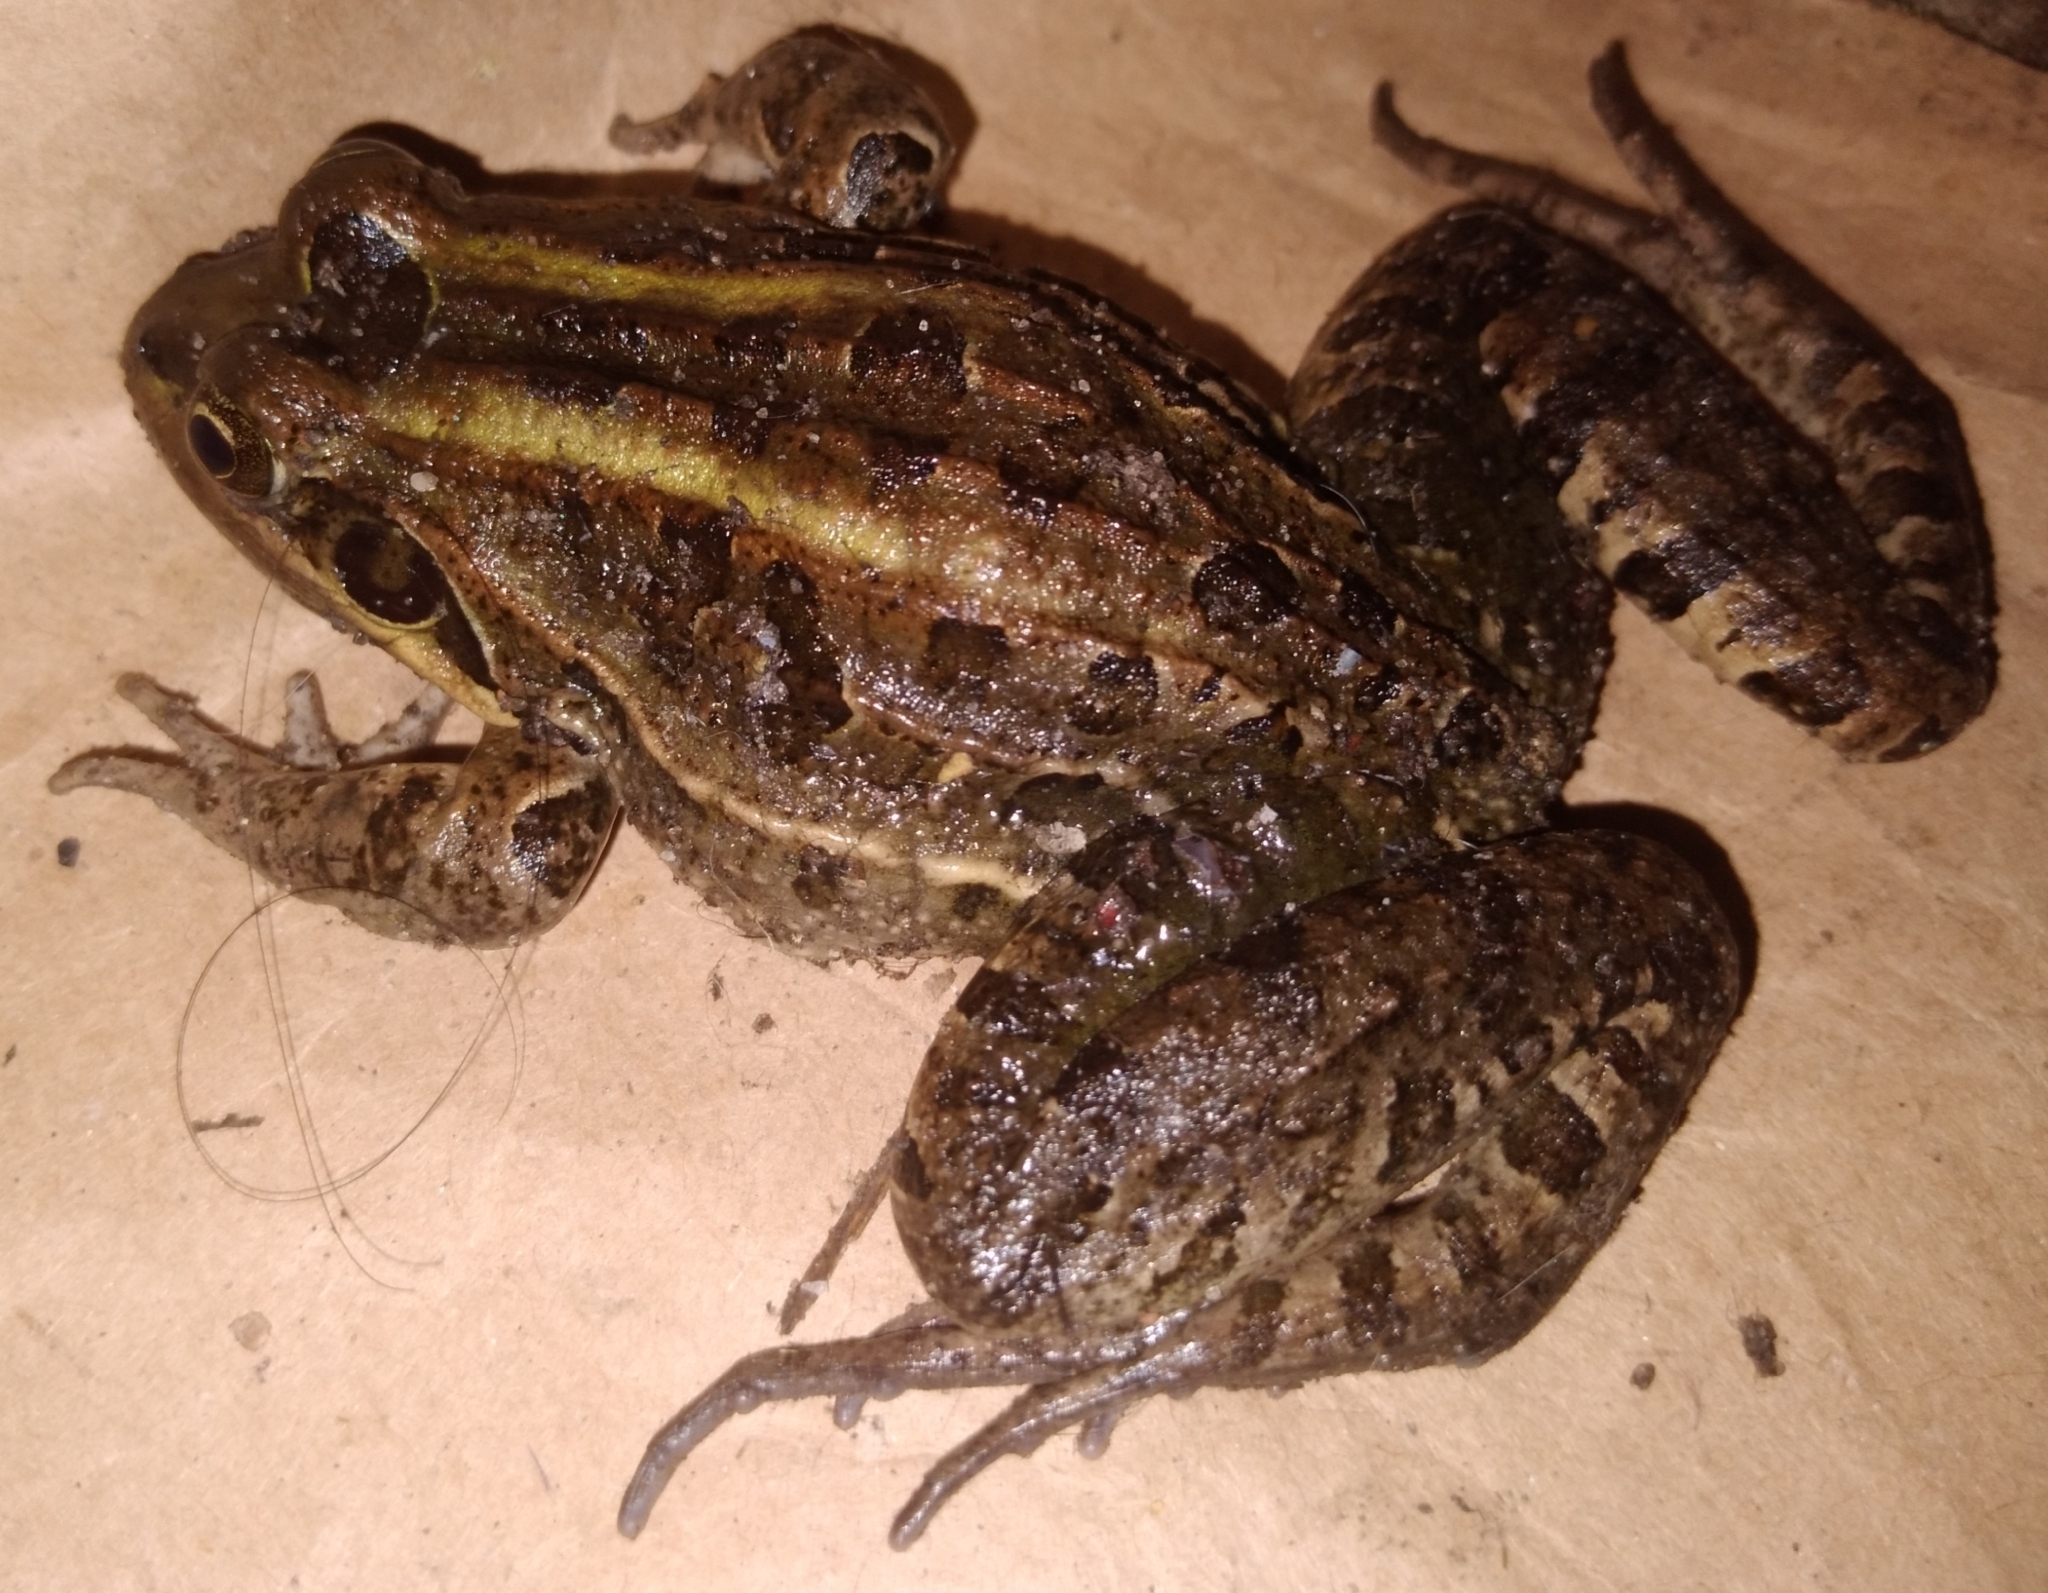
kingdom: Animalia
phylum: Chordata
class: Amphibia
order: Anura
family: Leptodactylidae
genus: Leptodactylus
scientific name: Leptodactylus luctator
